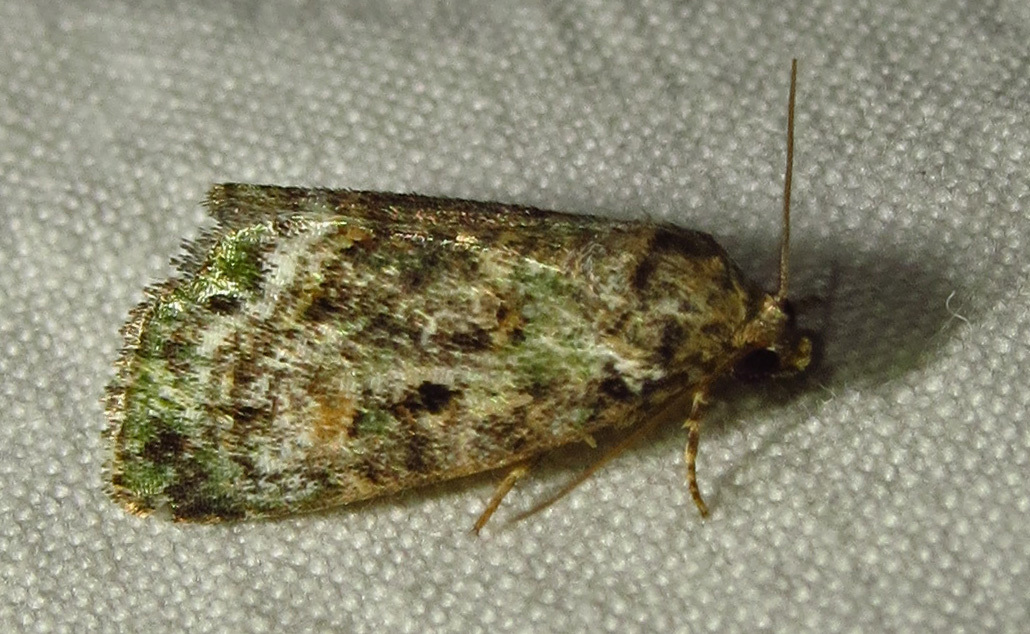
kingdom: Animalia
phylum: Arthropoda
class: Insecta
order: Lepidoptera
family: Noctuidae
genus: Lithacodia
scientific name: Lithacodia musta
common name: Small mossy glyph
